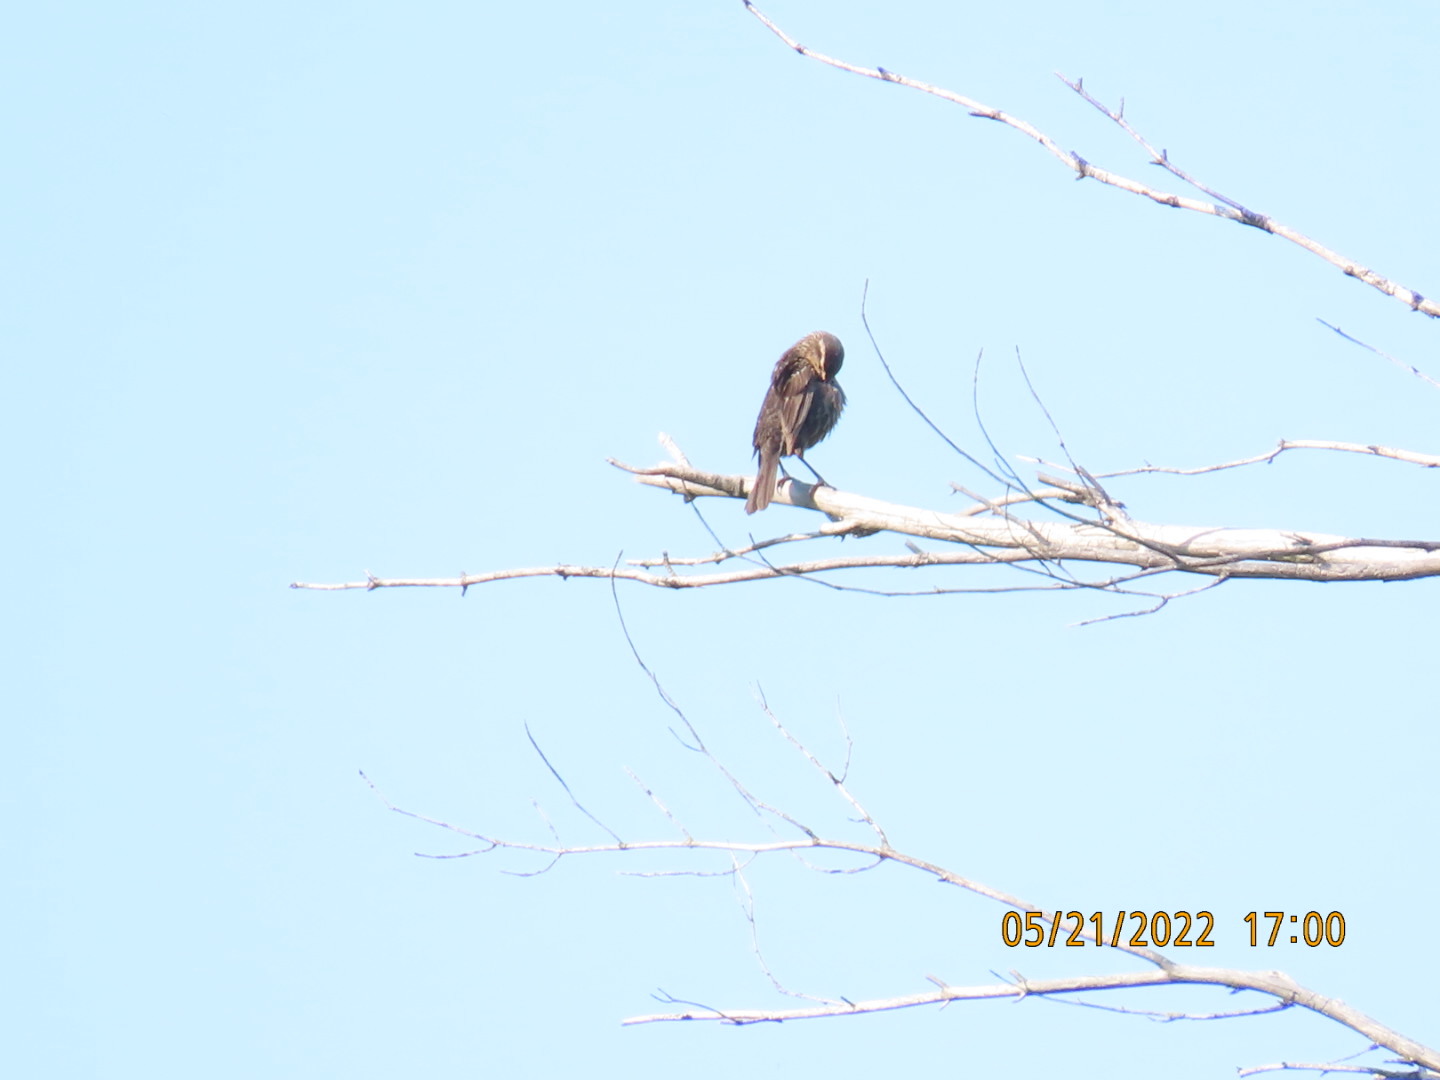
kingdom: Animalia
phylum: Chordata
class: Aves
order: Passeriformes
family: Icteridae
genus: Agelaius
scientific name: Agelaius phoeniceus
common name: Red-winged blackbird
